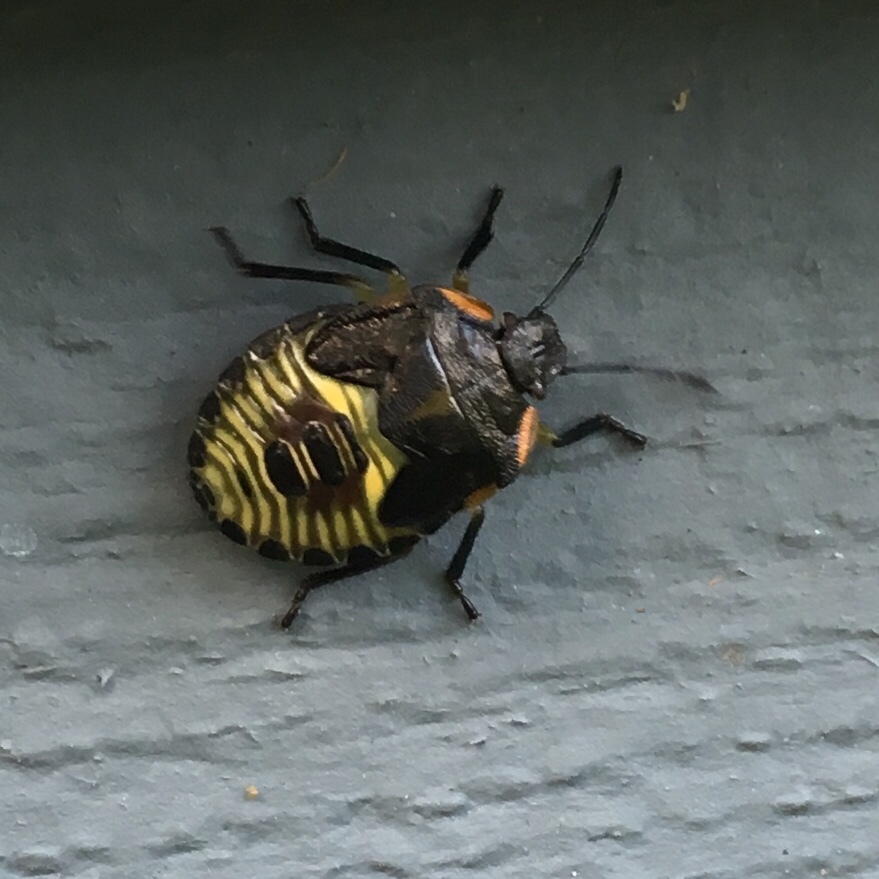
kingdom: Animalia
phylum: Arthropoda
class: Insecta
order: Hemiptera
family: Pentatomidae
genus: Chinavia
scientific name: Chinavia hilaris
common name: Green stink bug
